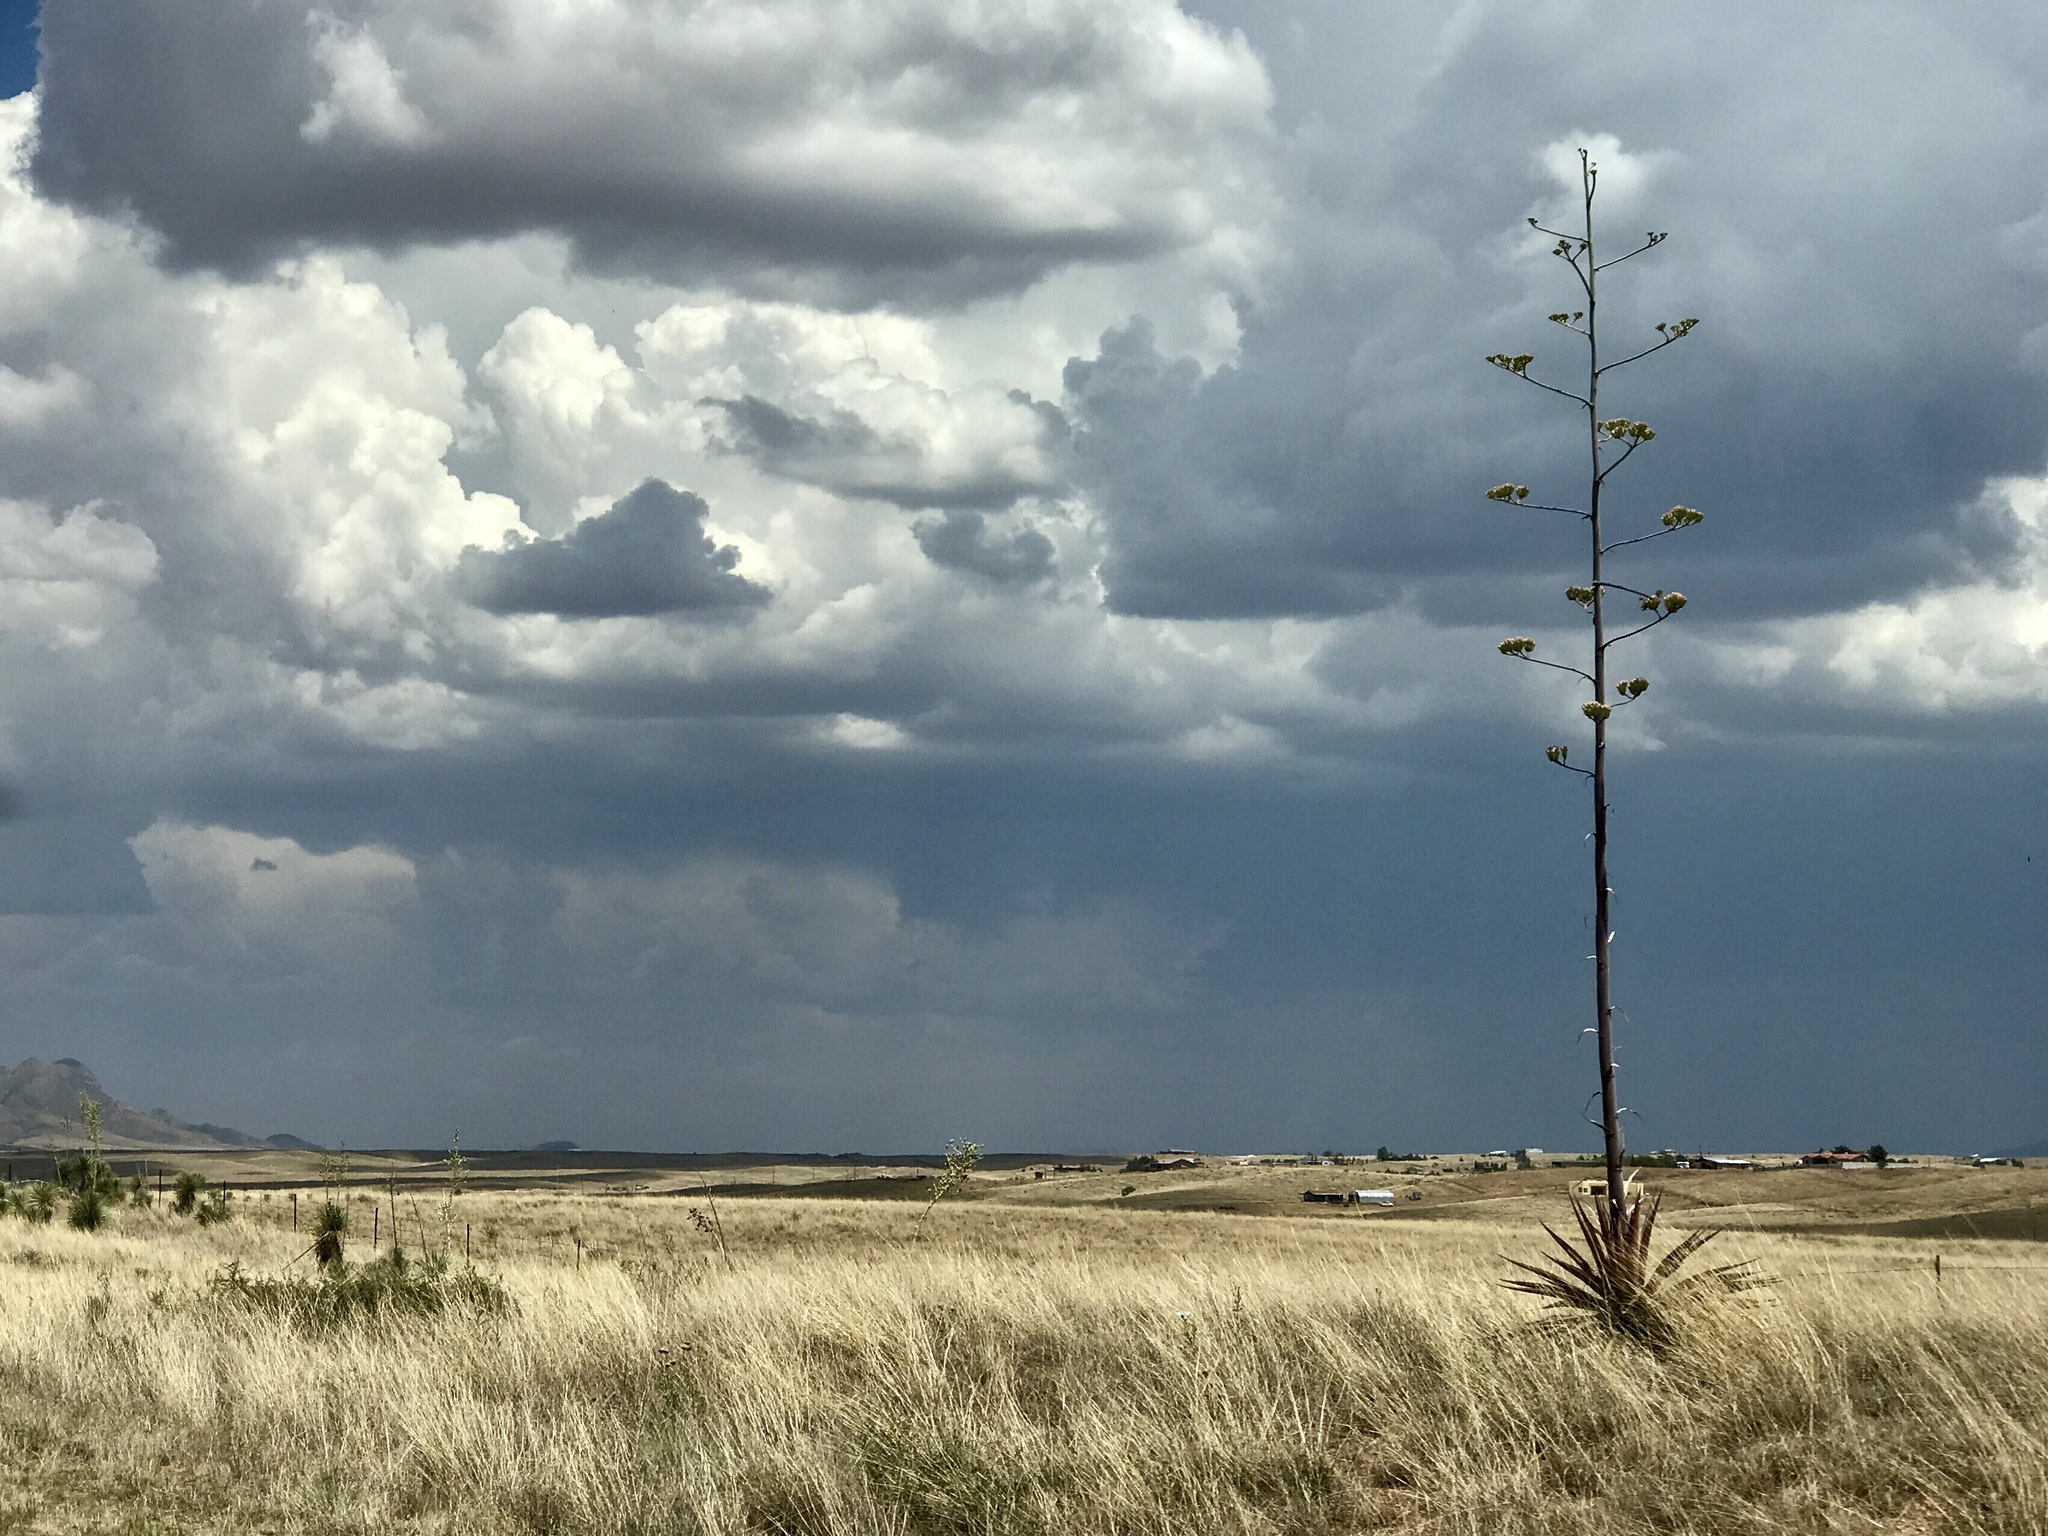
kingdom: Plantae
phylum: Tracheophyta
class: Liliopsida
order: Asparagales
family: Asparagaceae
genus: Agave
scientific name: Agave palmeri
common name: Palmer agave
